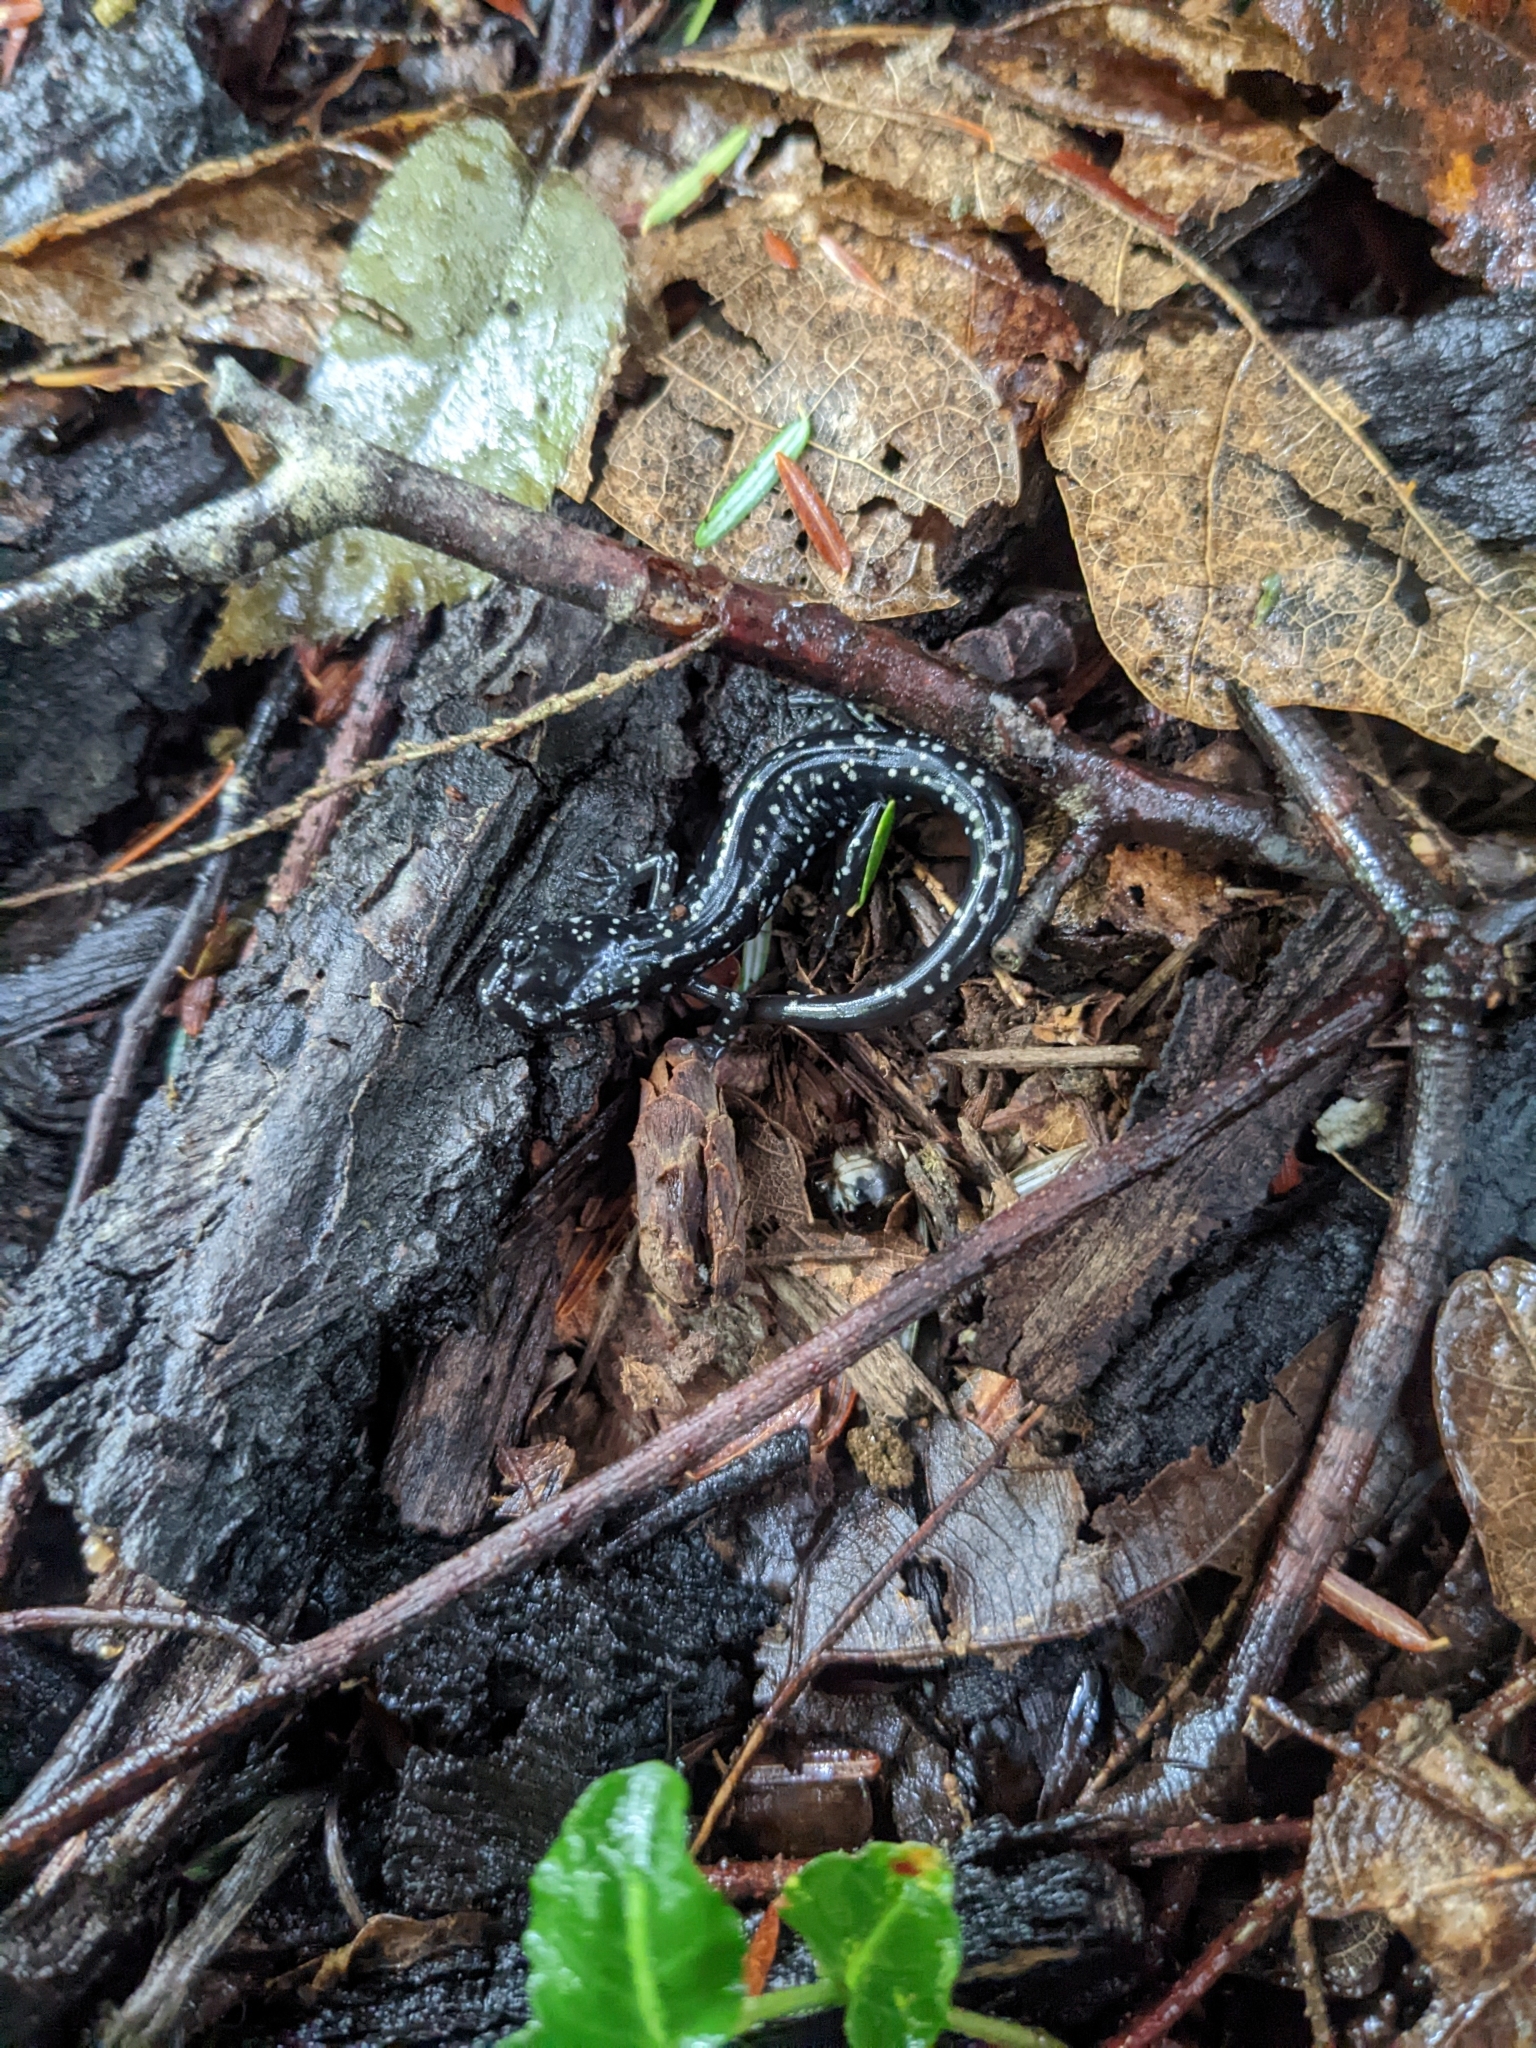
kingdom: Animalia
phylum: Chordata
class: Amphibia
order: Caudata
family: Plethodontidae
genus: Plethodon
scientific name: Plethodon glutinosus
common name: Northern slimy salamander
